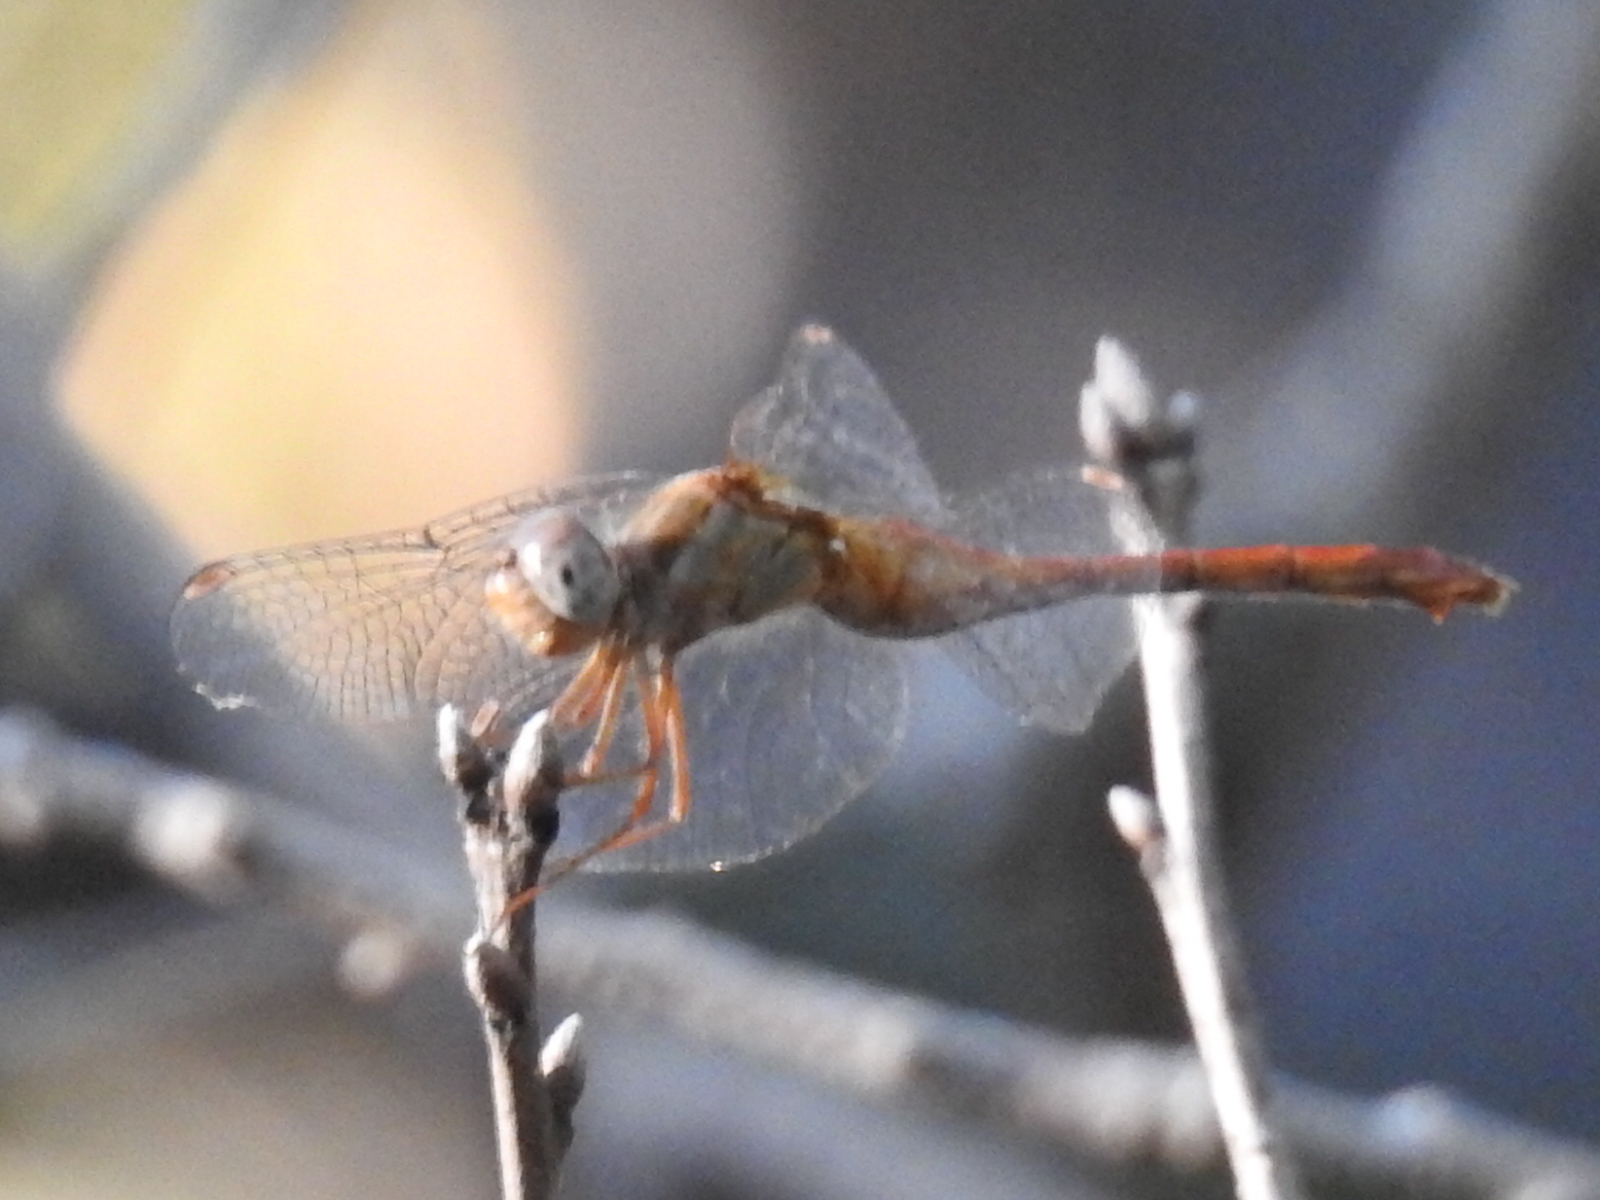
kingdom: Animalia
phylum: Arthropoda
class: Insecta
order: Odonata
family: Libellulidae
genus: Sympetrum
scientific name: Sympetrum vicinum
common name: Autumn meadowhawk
